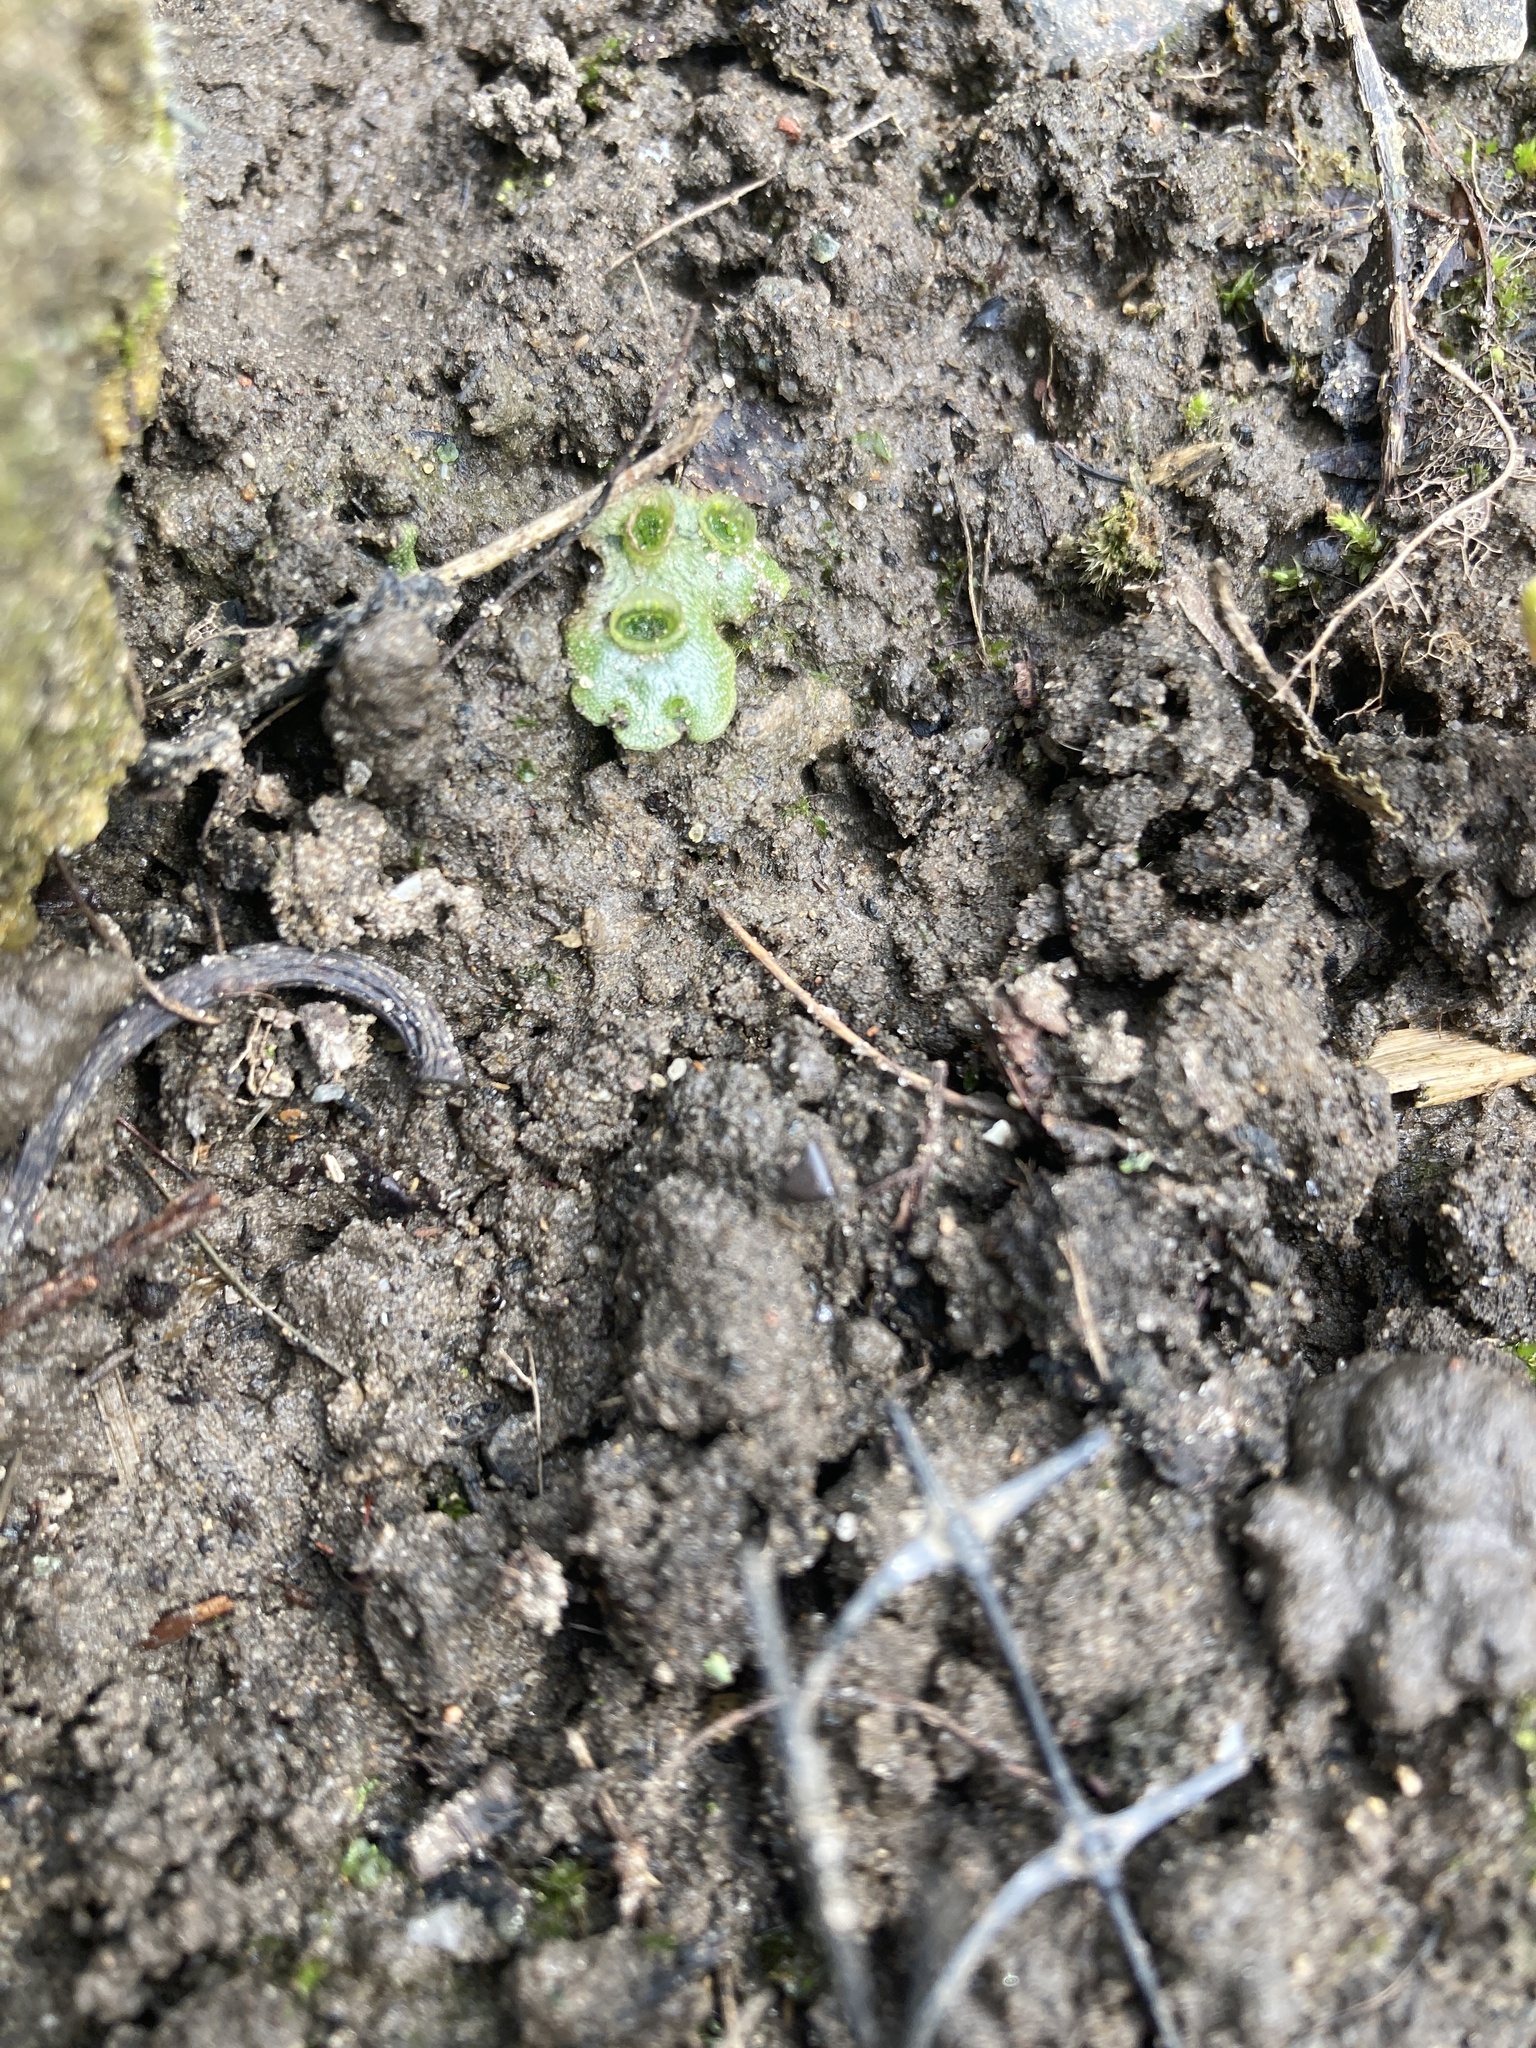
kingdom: Plantae
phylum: Marchantiophyta
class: Marchantiopsida
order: Marchantiales
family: Marchantiaceae
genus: Marchantia
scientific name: Marchantia polymorpha
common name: Common liverwort
